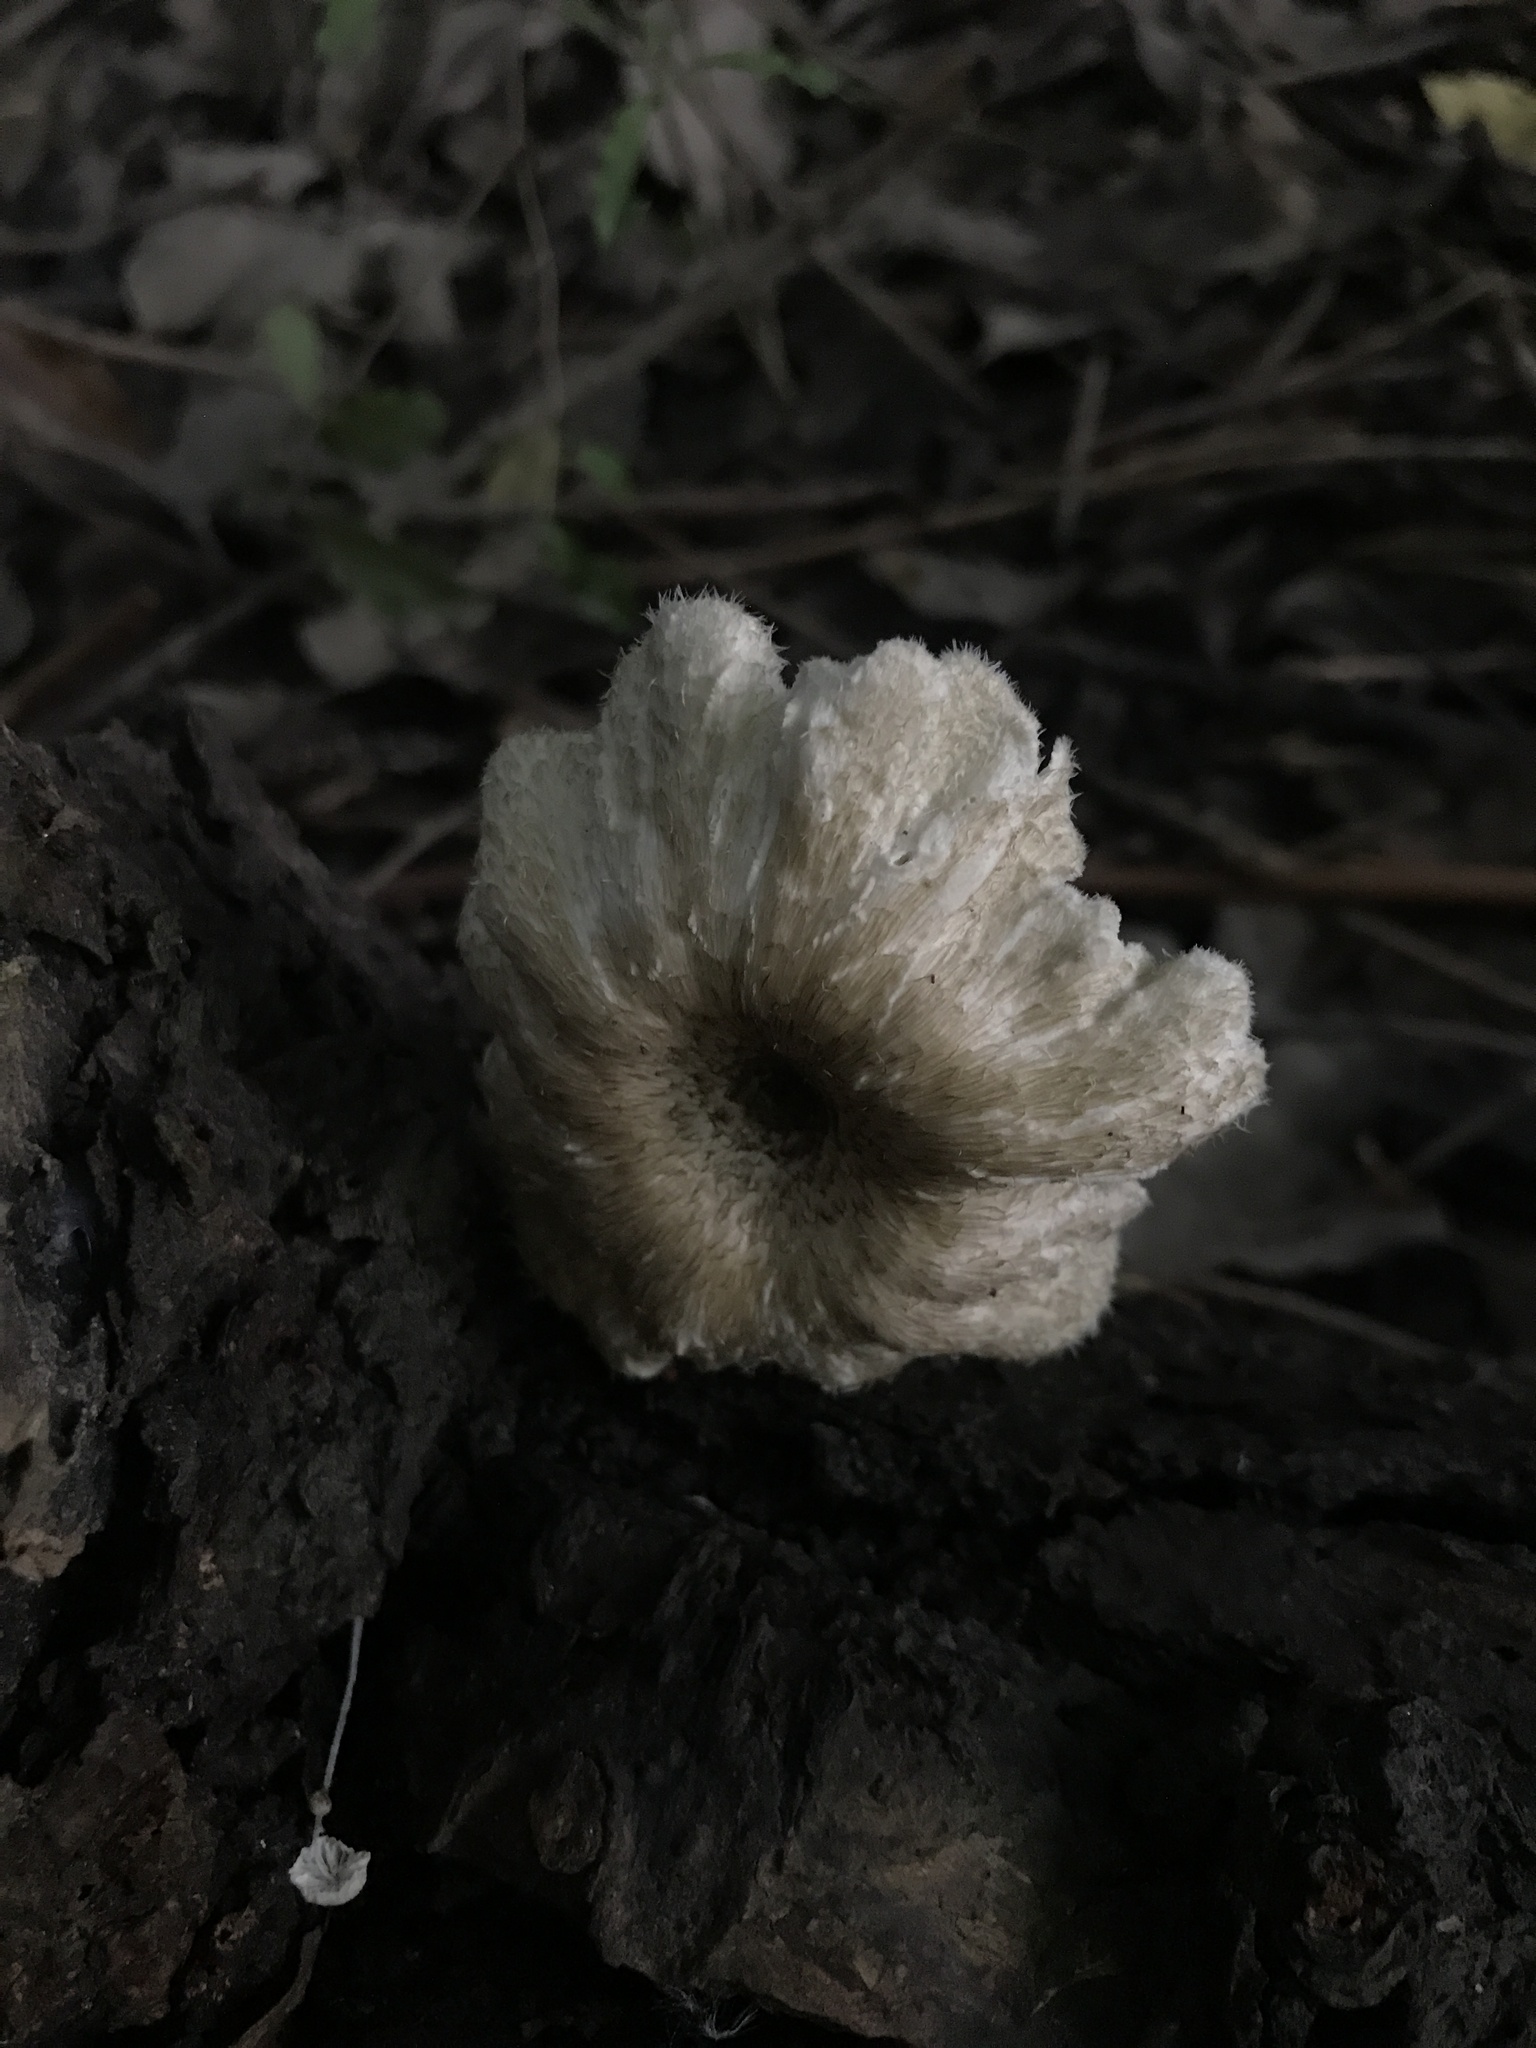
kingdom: Fungi
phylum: Basidiomycota
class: Agaricomycetes
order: Polyporales
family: Polyporaceae
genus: Lentinus
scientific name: Lentinus crinitus
